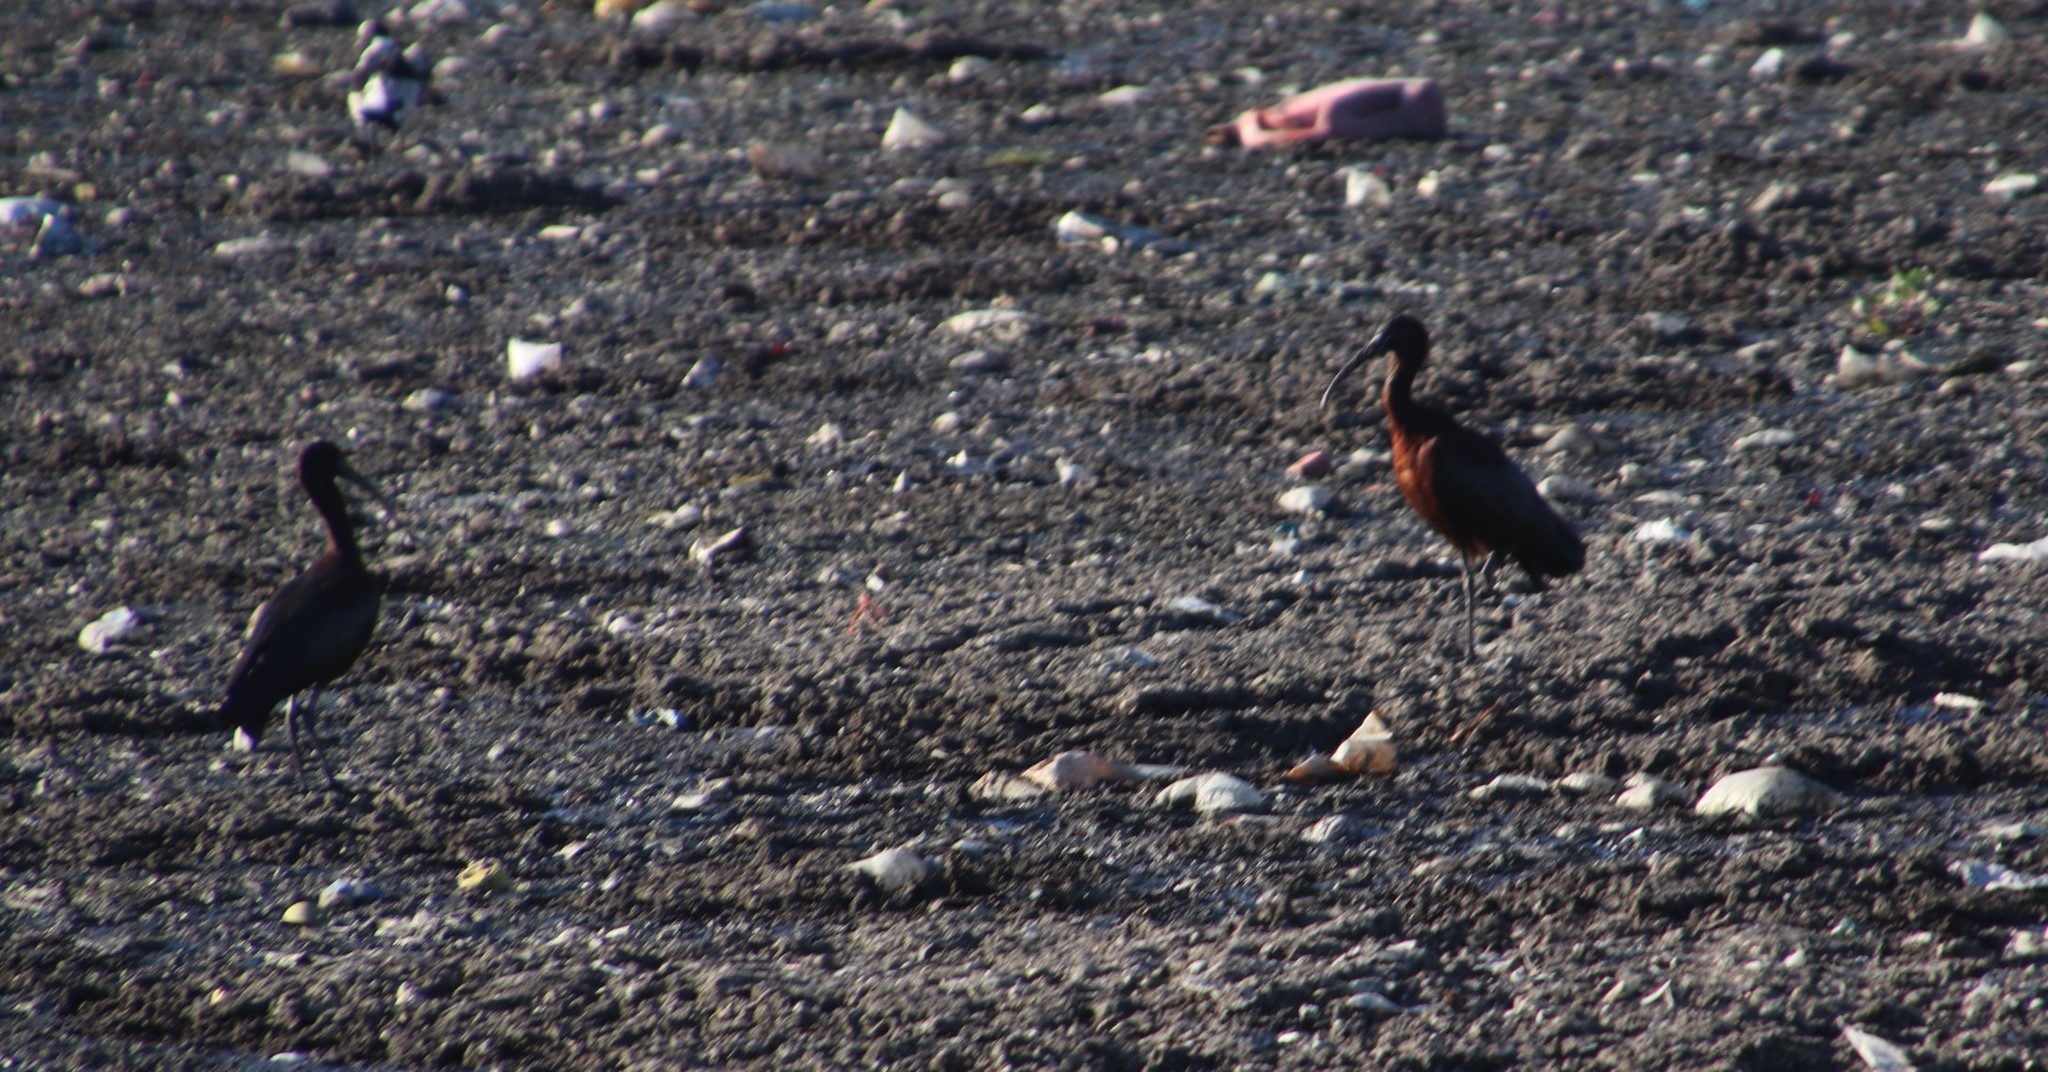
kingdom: Animalia
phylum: Chordata
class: Aves
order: Pelecaniformes
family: Threskiornithidae
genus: Plegadis
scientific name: Plegadis falcinellus
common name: Glossy ibis
